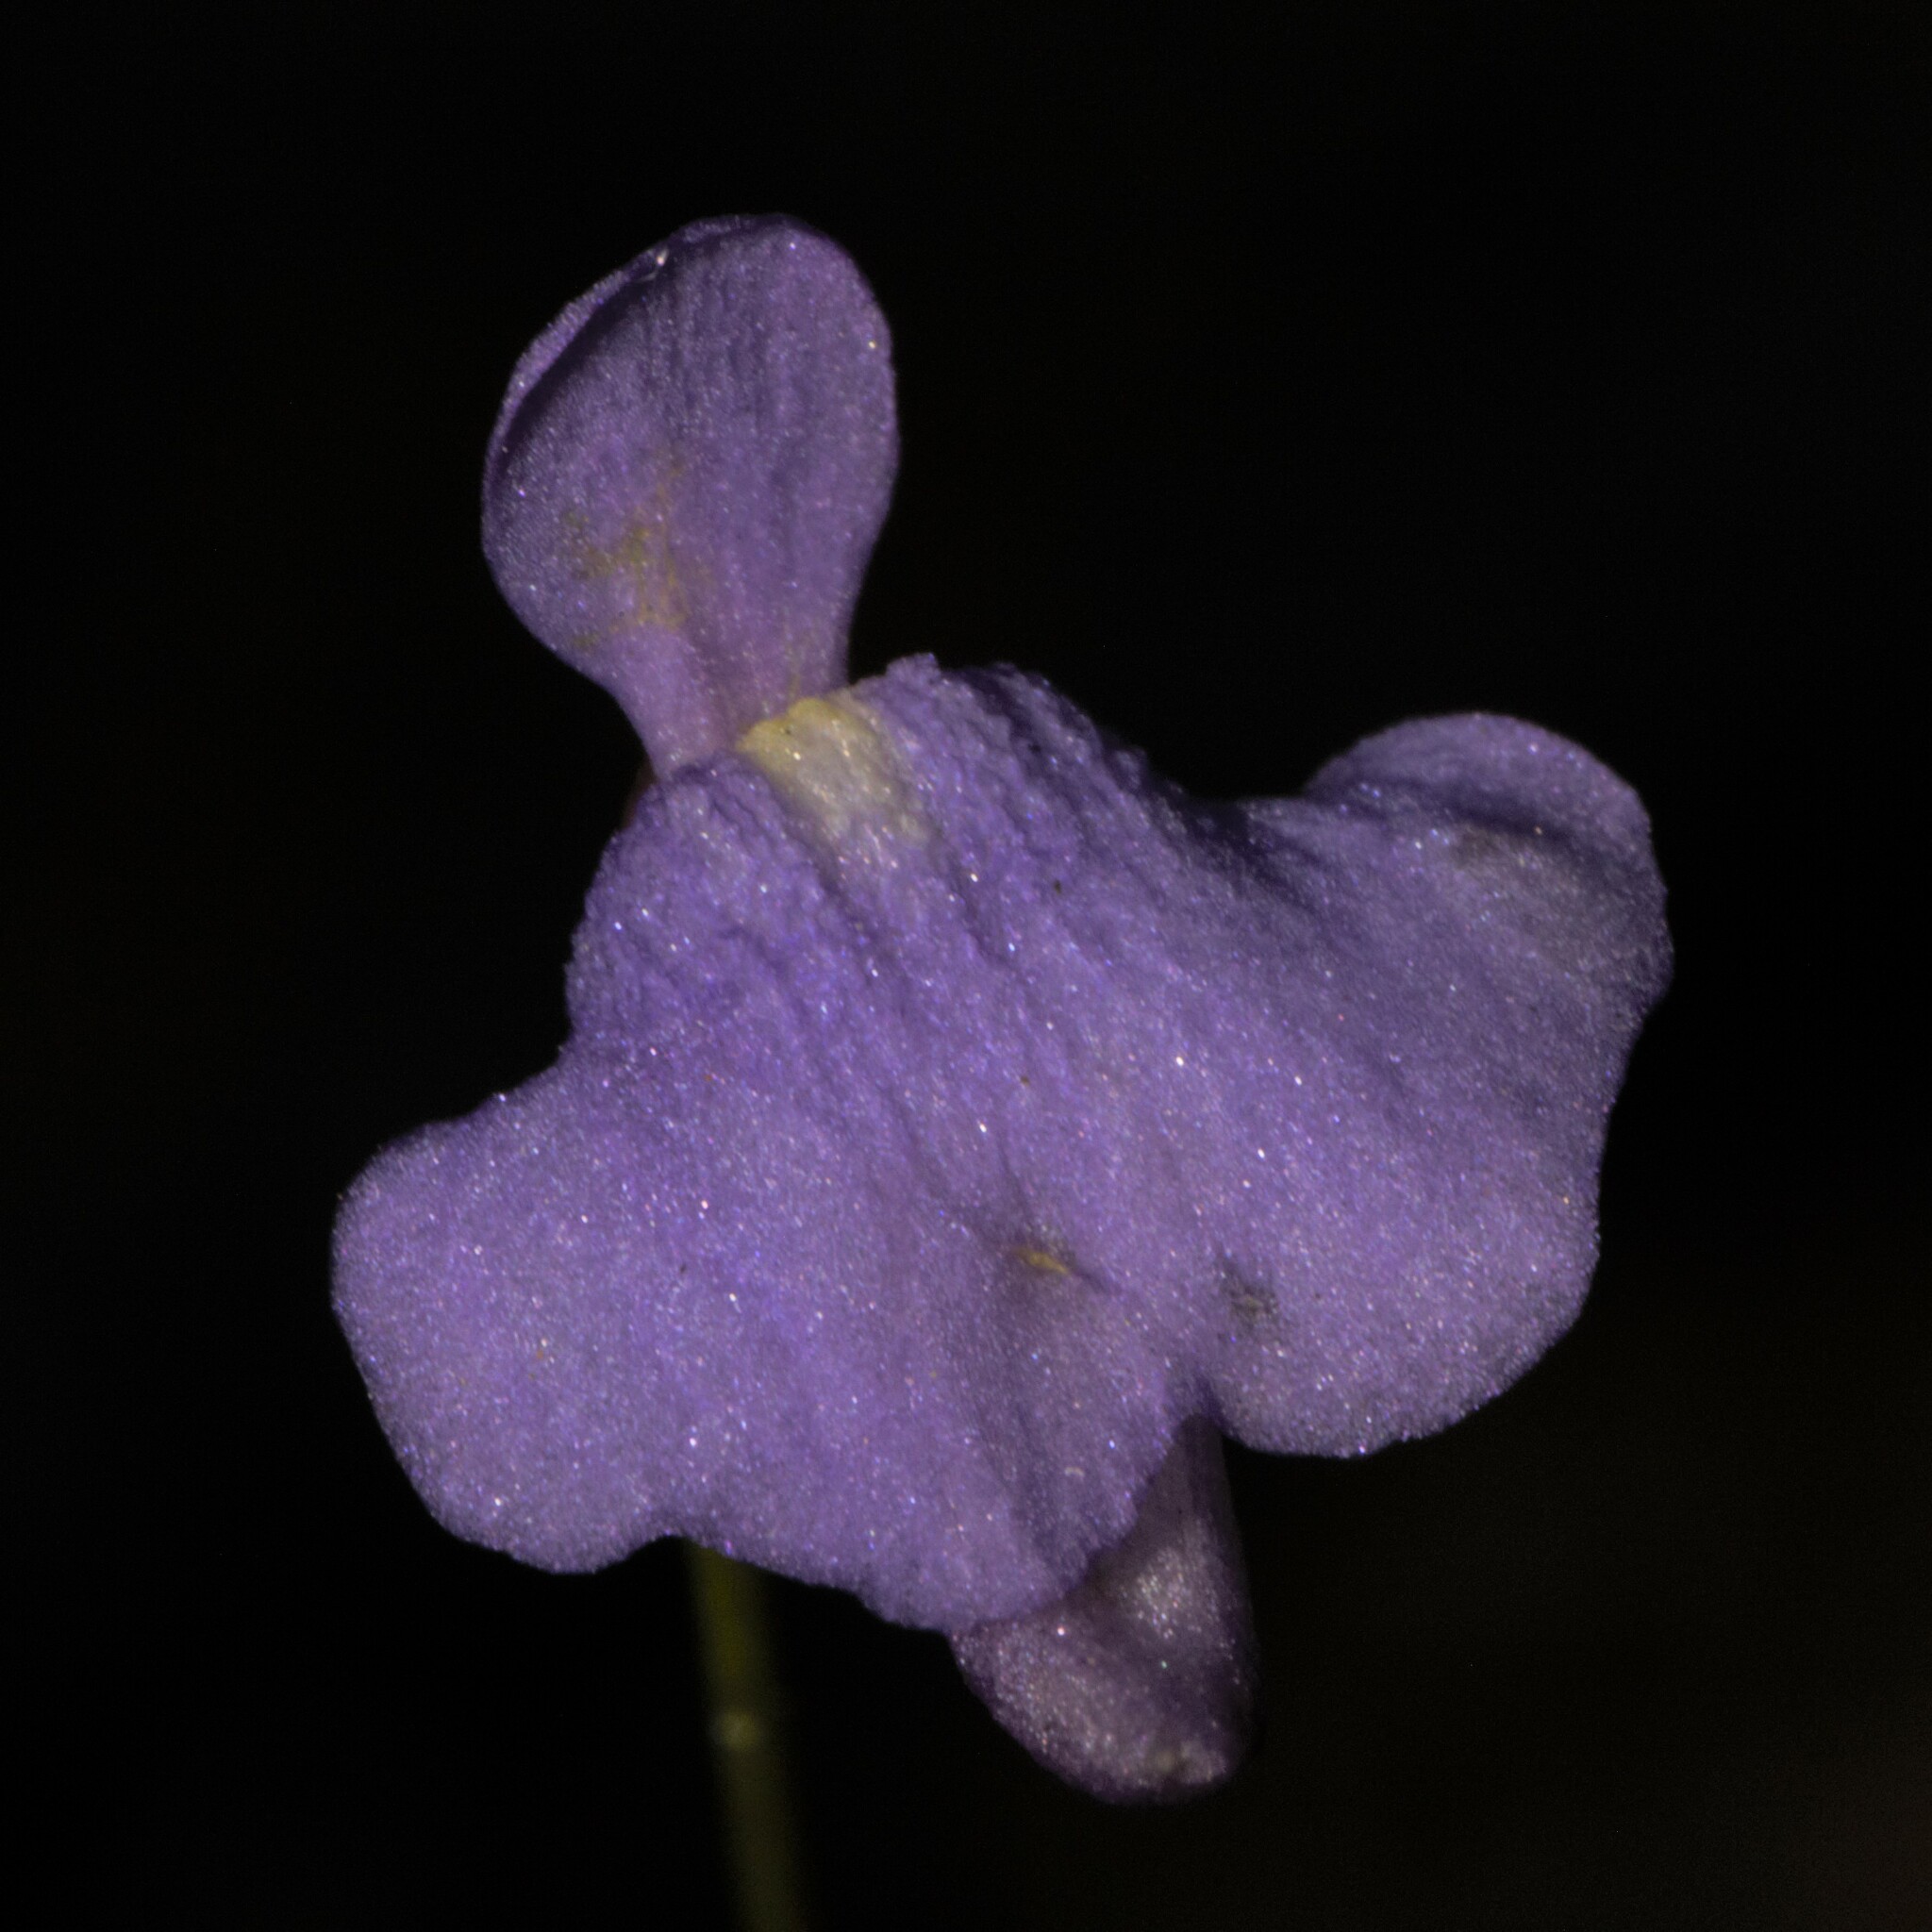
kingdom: Plantae
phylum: Tracheophyta
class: Magnoliopsida
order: Lamiales
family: Lentibulariaceae
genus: Utricularia
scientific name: Utricularia simplex
